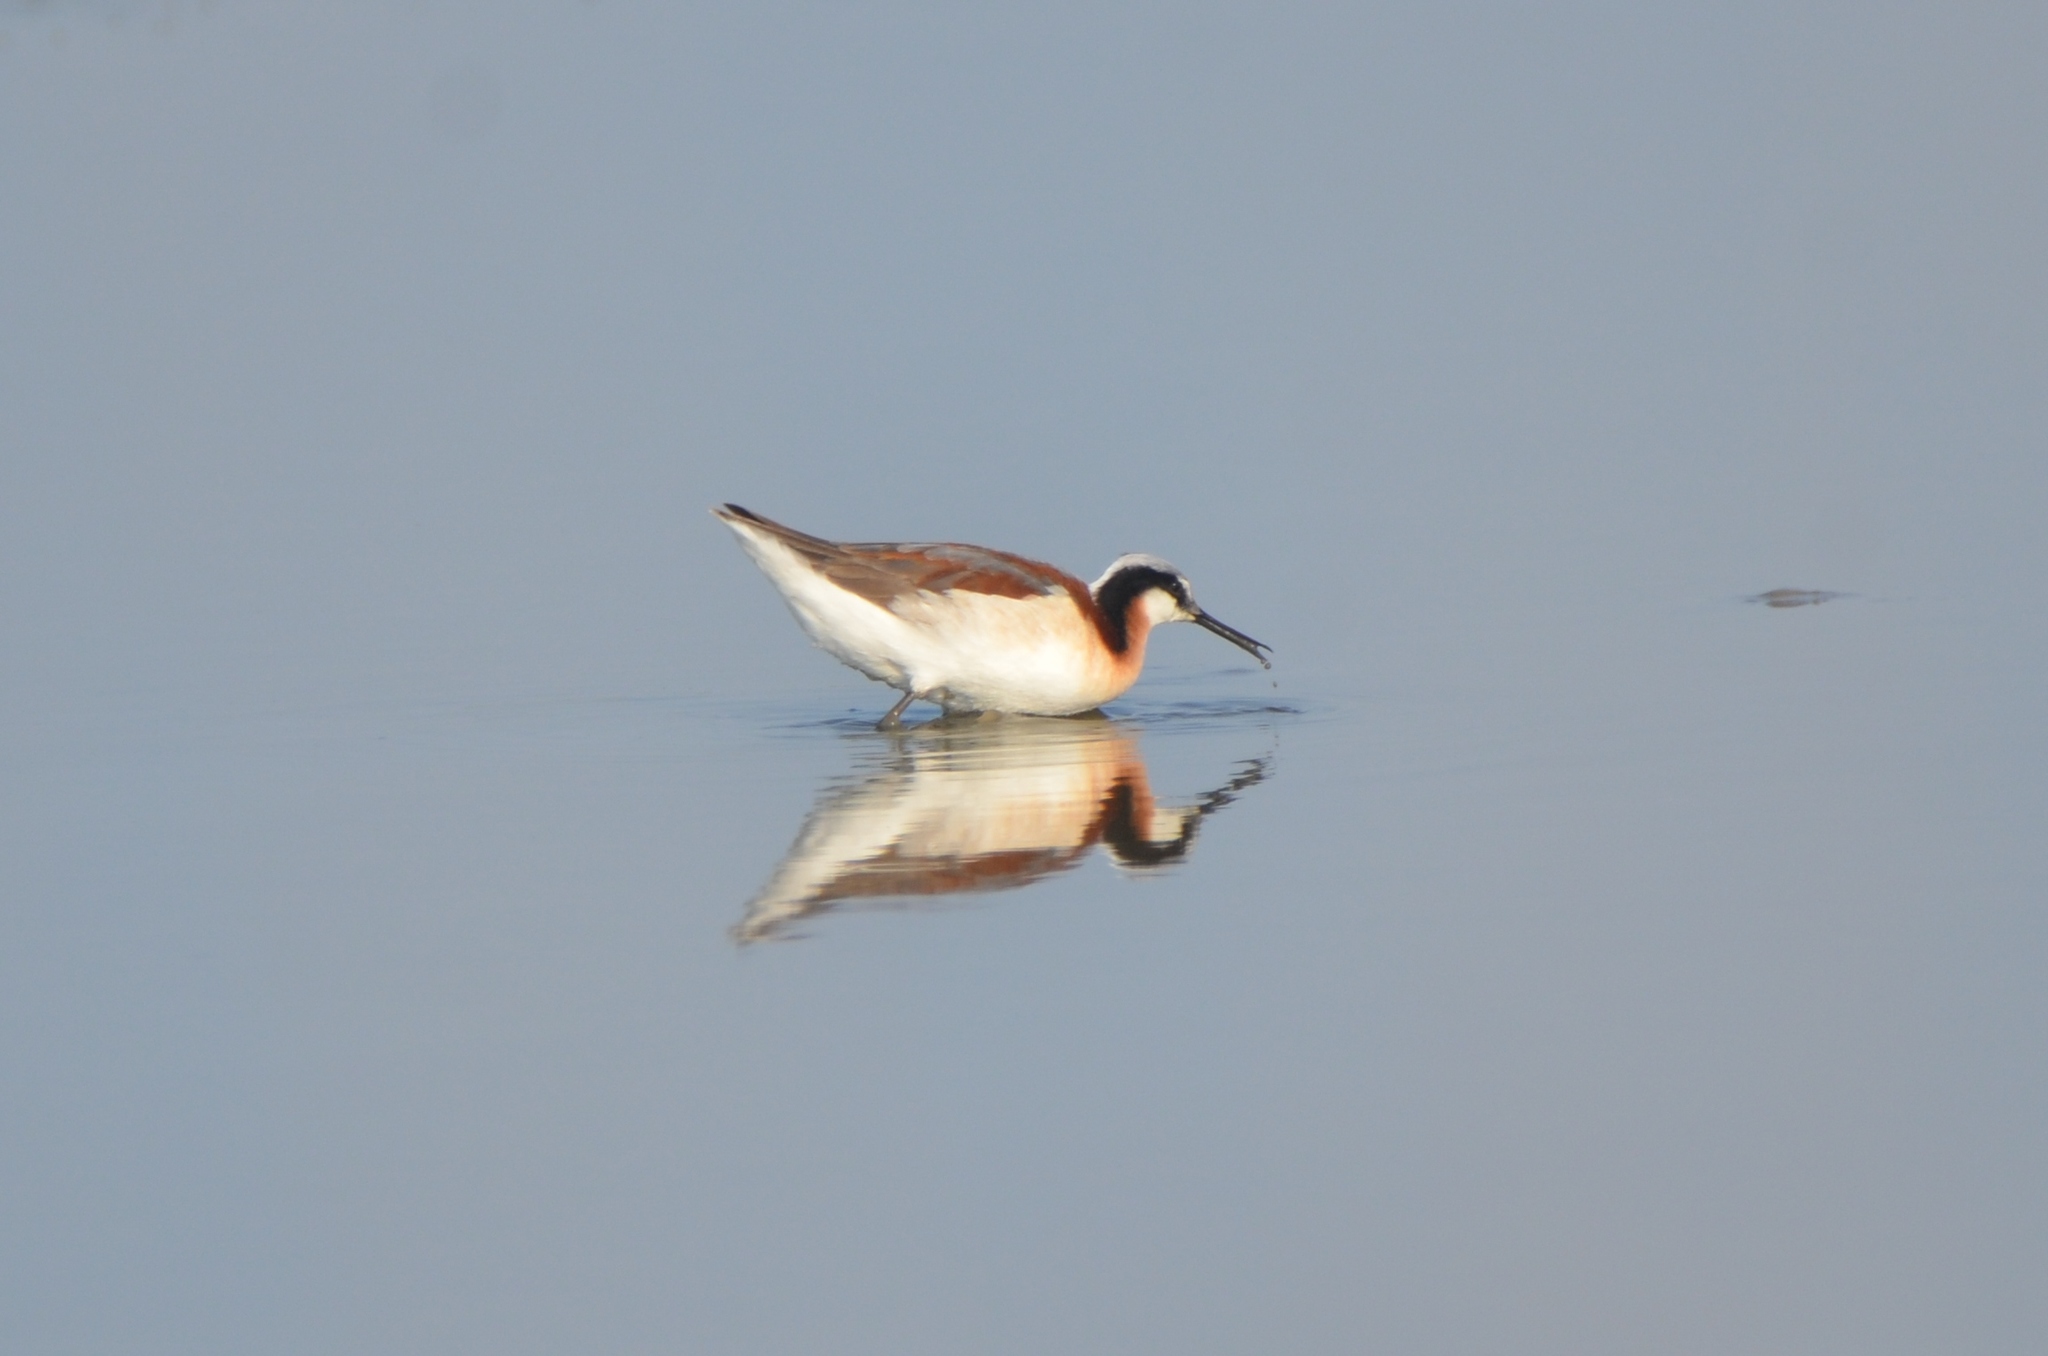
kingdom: Animalia
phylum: Chordata
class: Aves
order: Charadriiformes
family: Scolopacidae
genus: Phalaropus
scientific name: Phalaropus tricolor
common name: Wilson's phalarope
